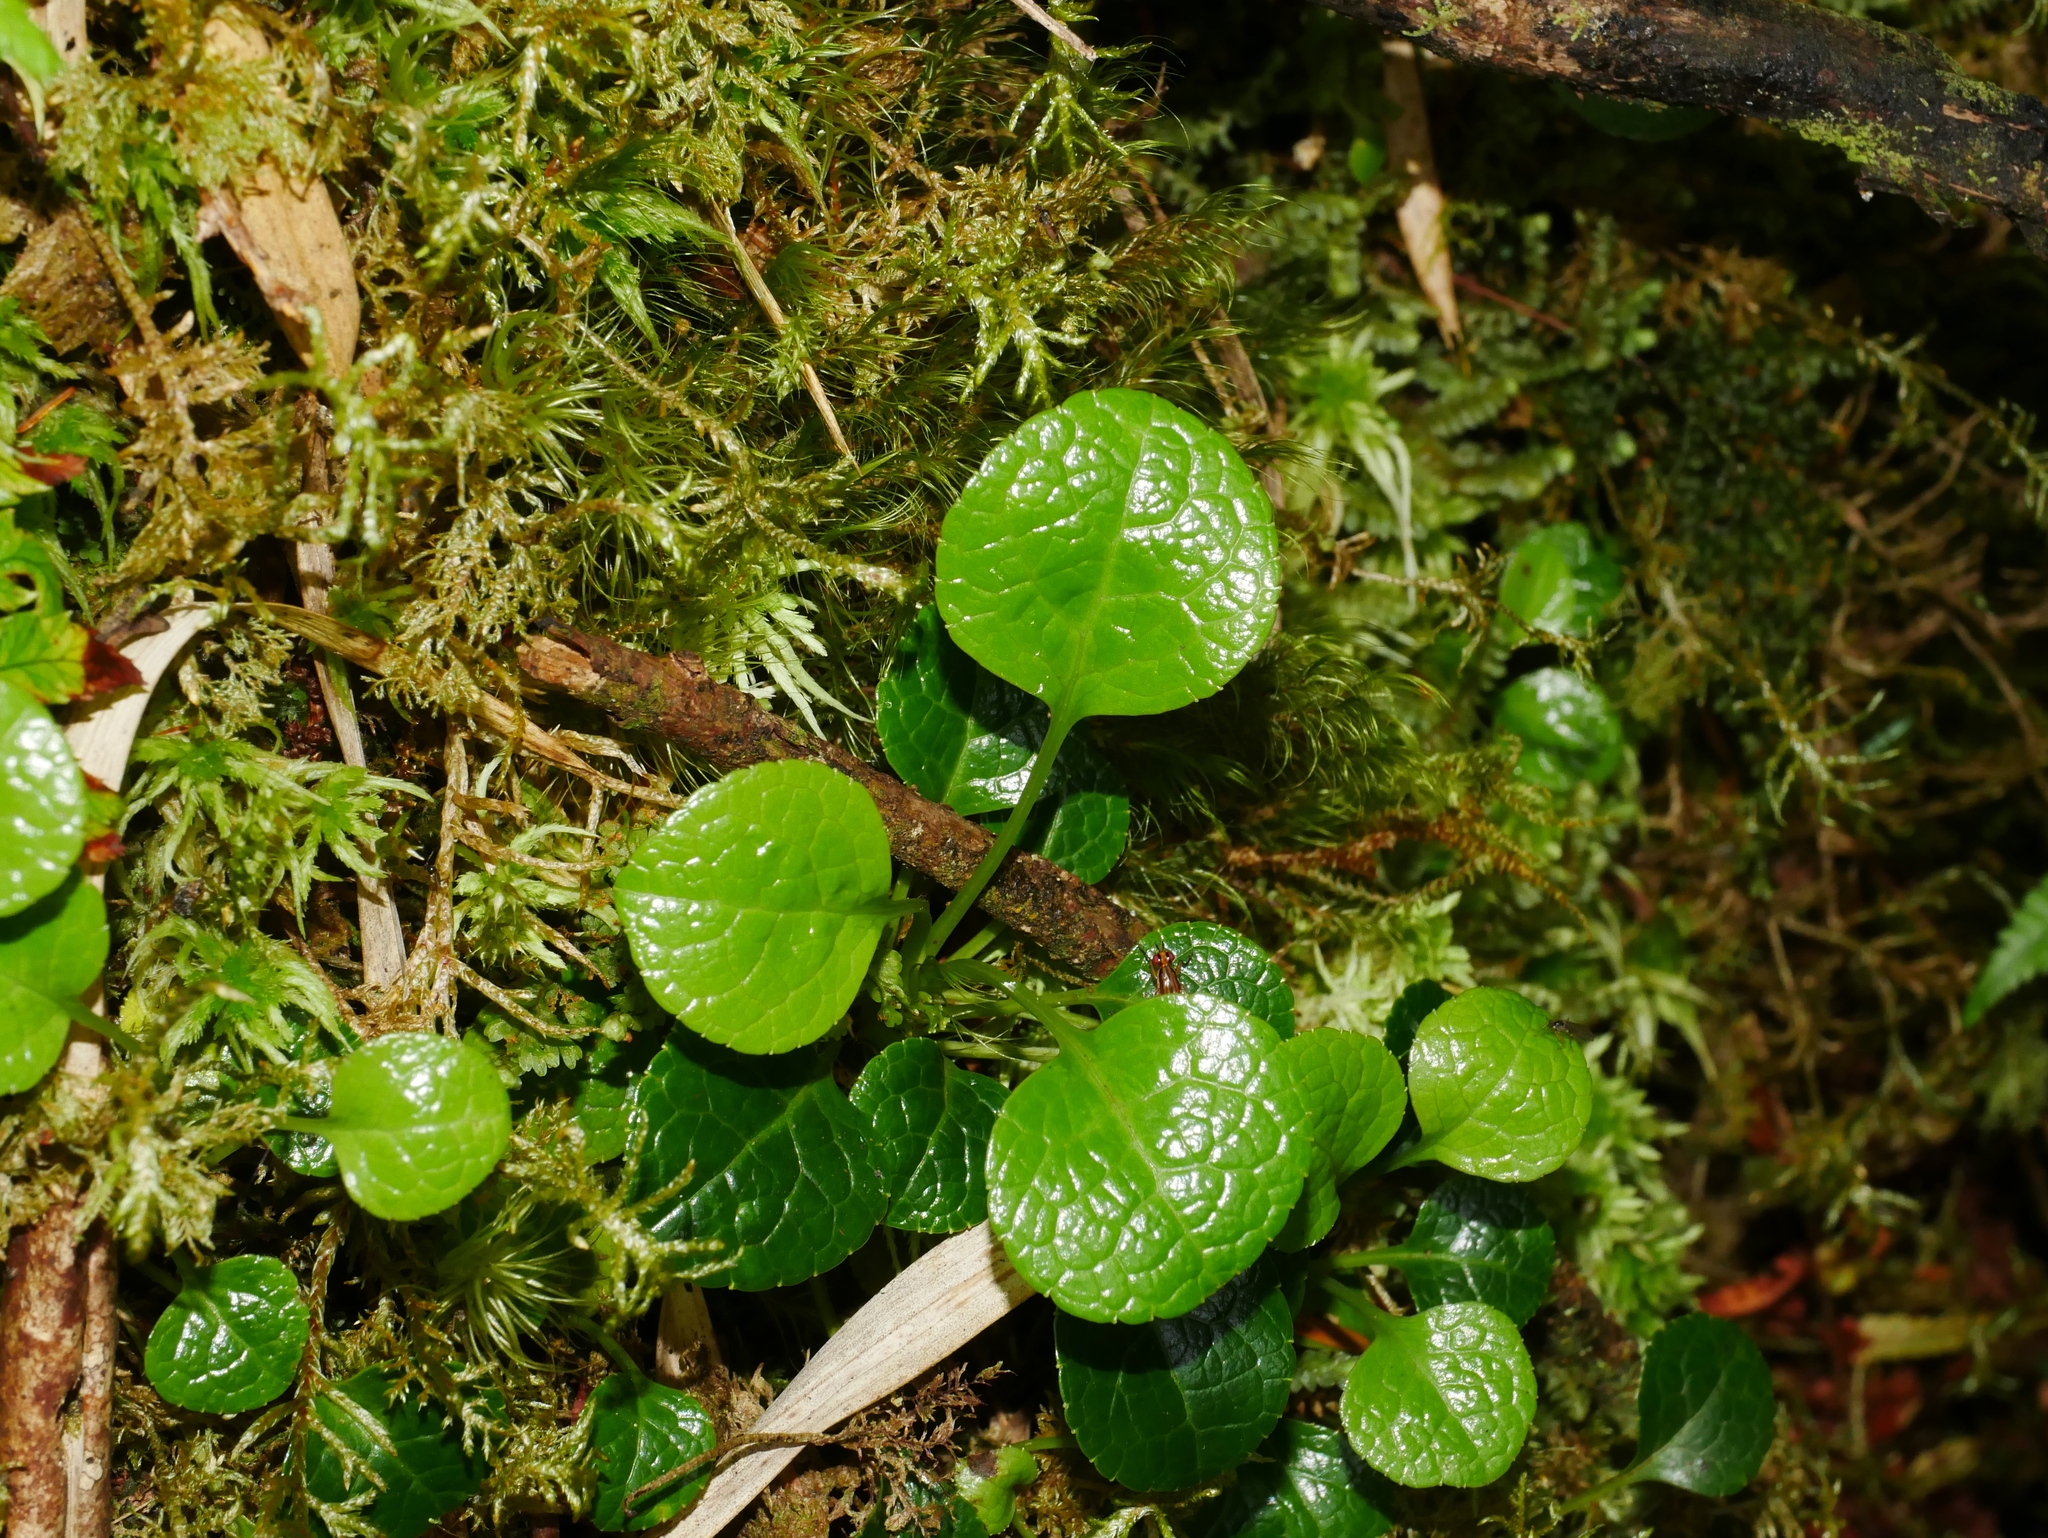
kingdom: Plantae
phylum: Tracheophyta
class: Magnoliopsida
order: Ericales
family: Ericaceae
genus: Pyrola
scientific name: Pyrola morrisonensis
